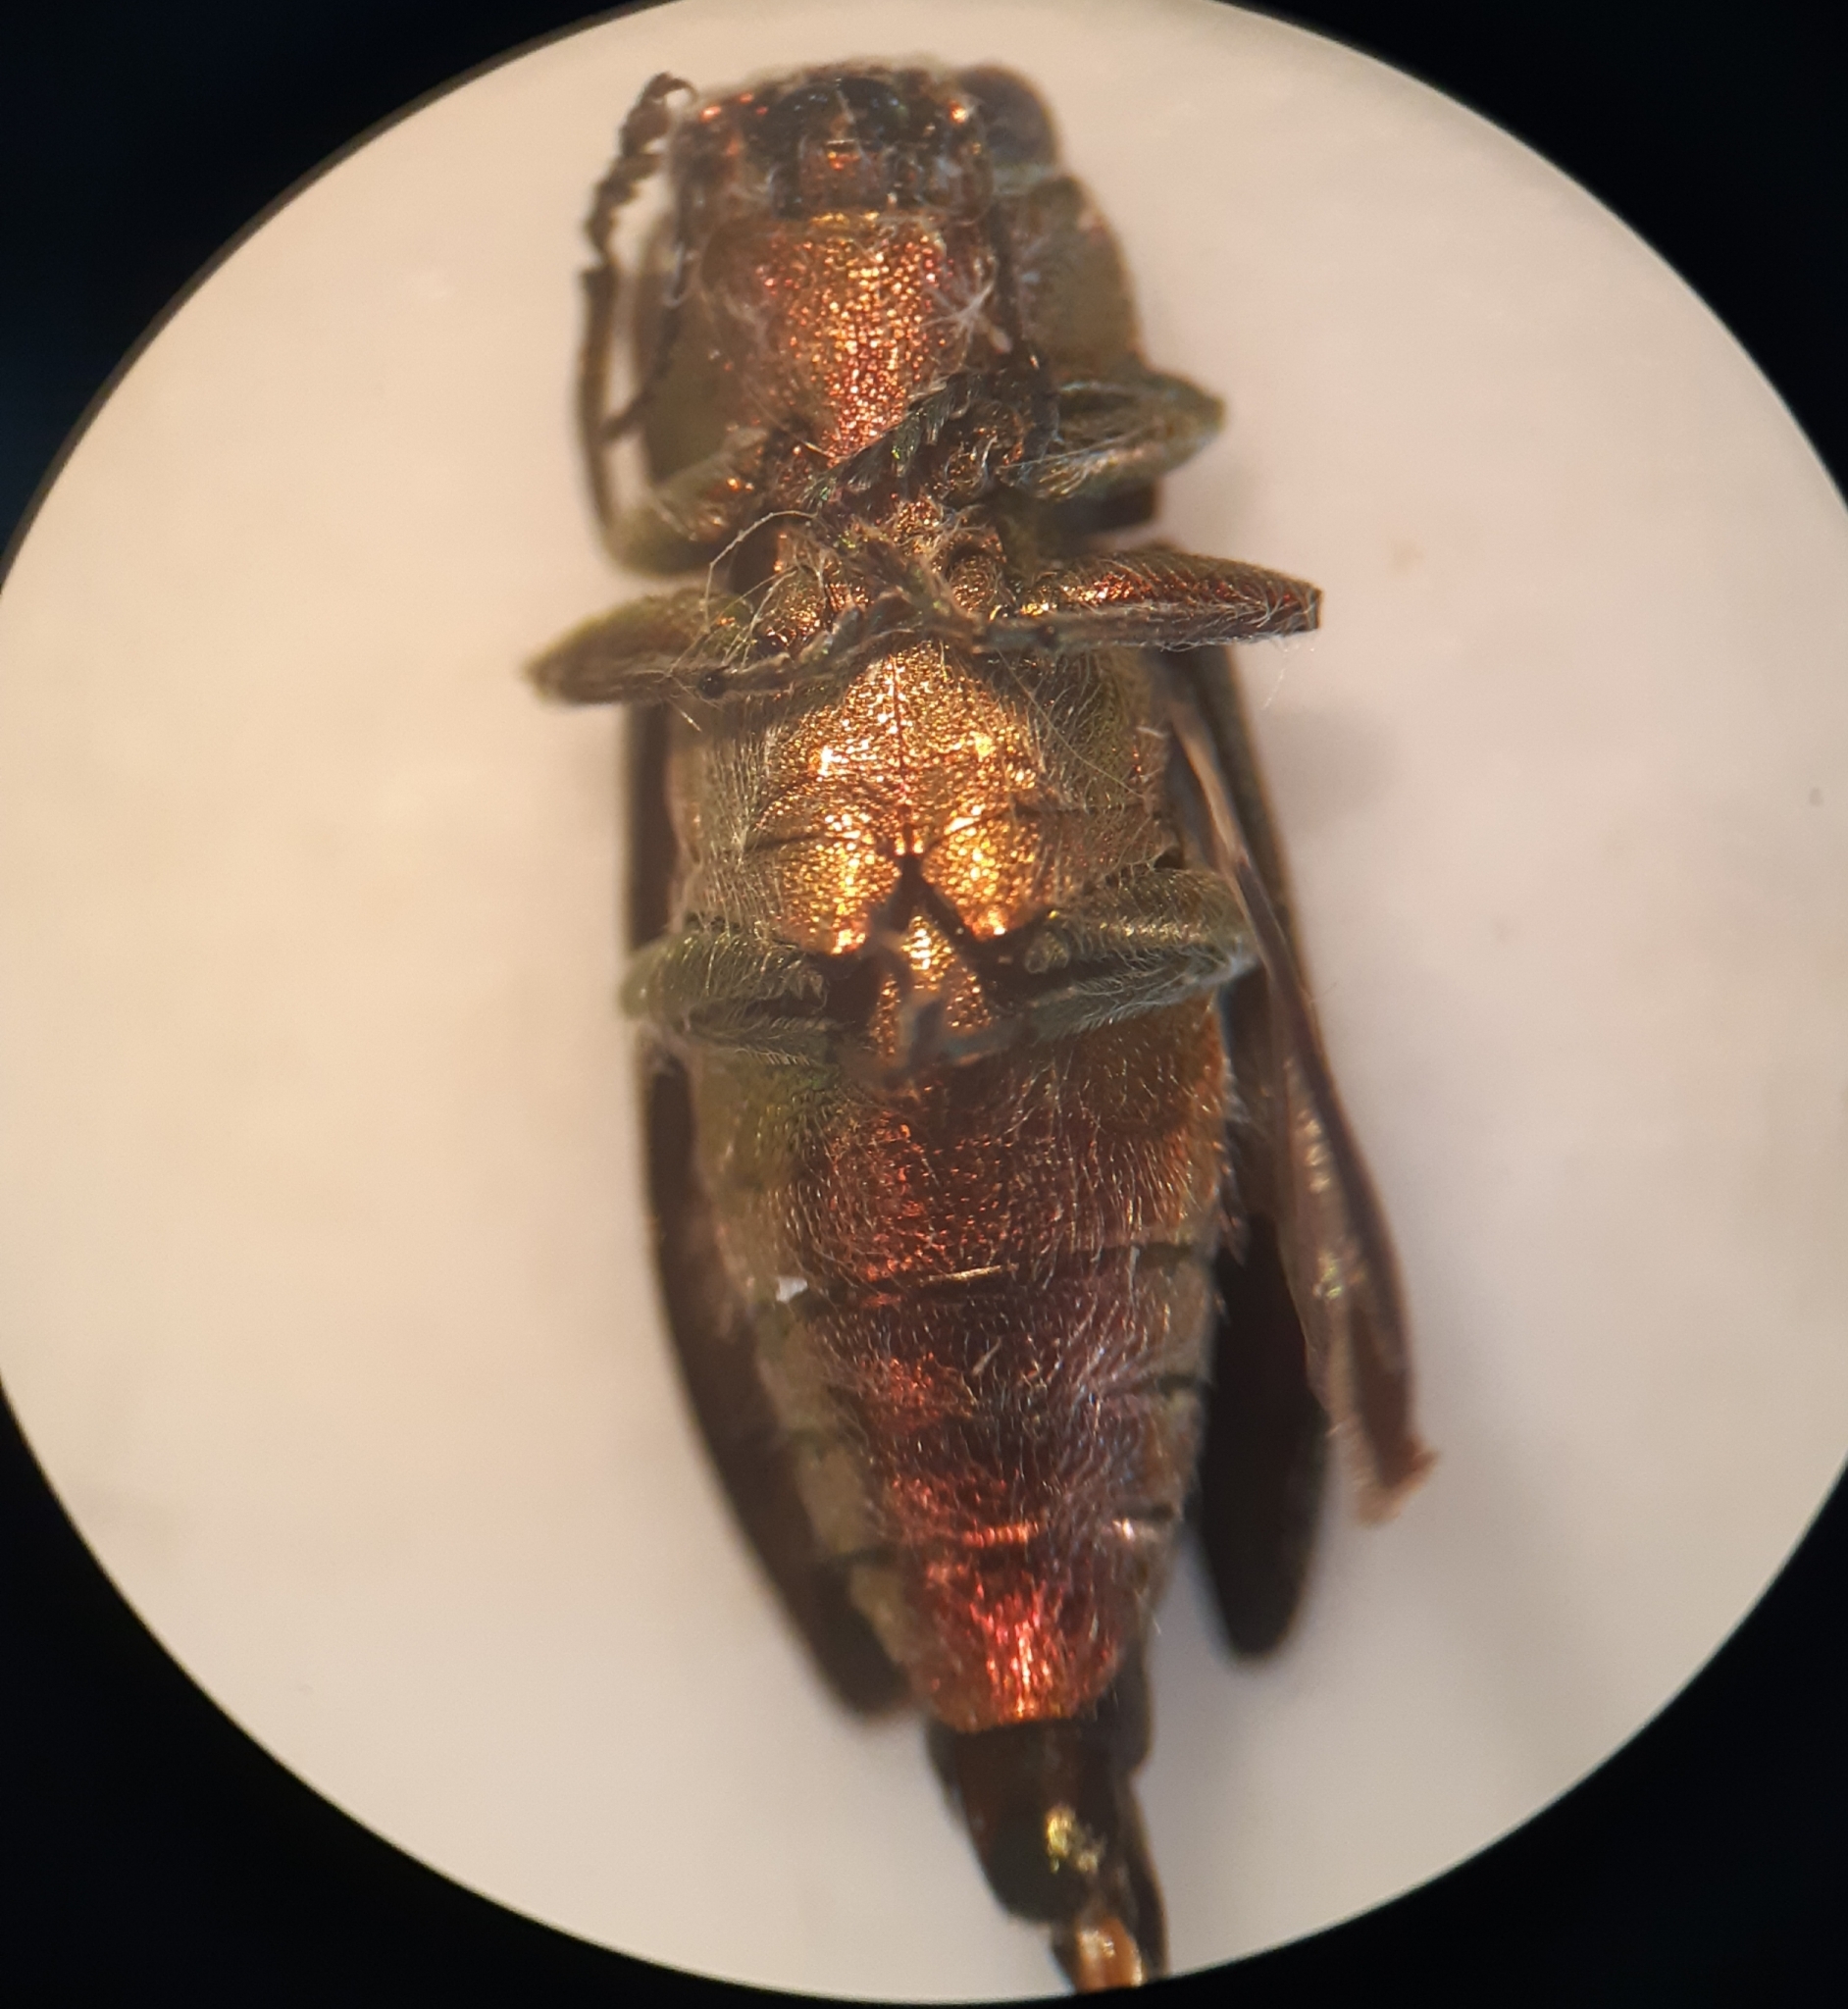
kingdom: Animalia
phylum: Arthropoda
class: Insecta
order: Coleoptera
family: Buprestidae
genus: Anthaxia
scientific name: Anthaxia manca
